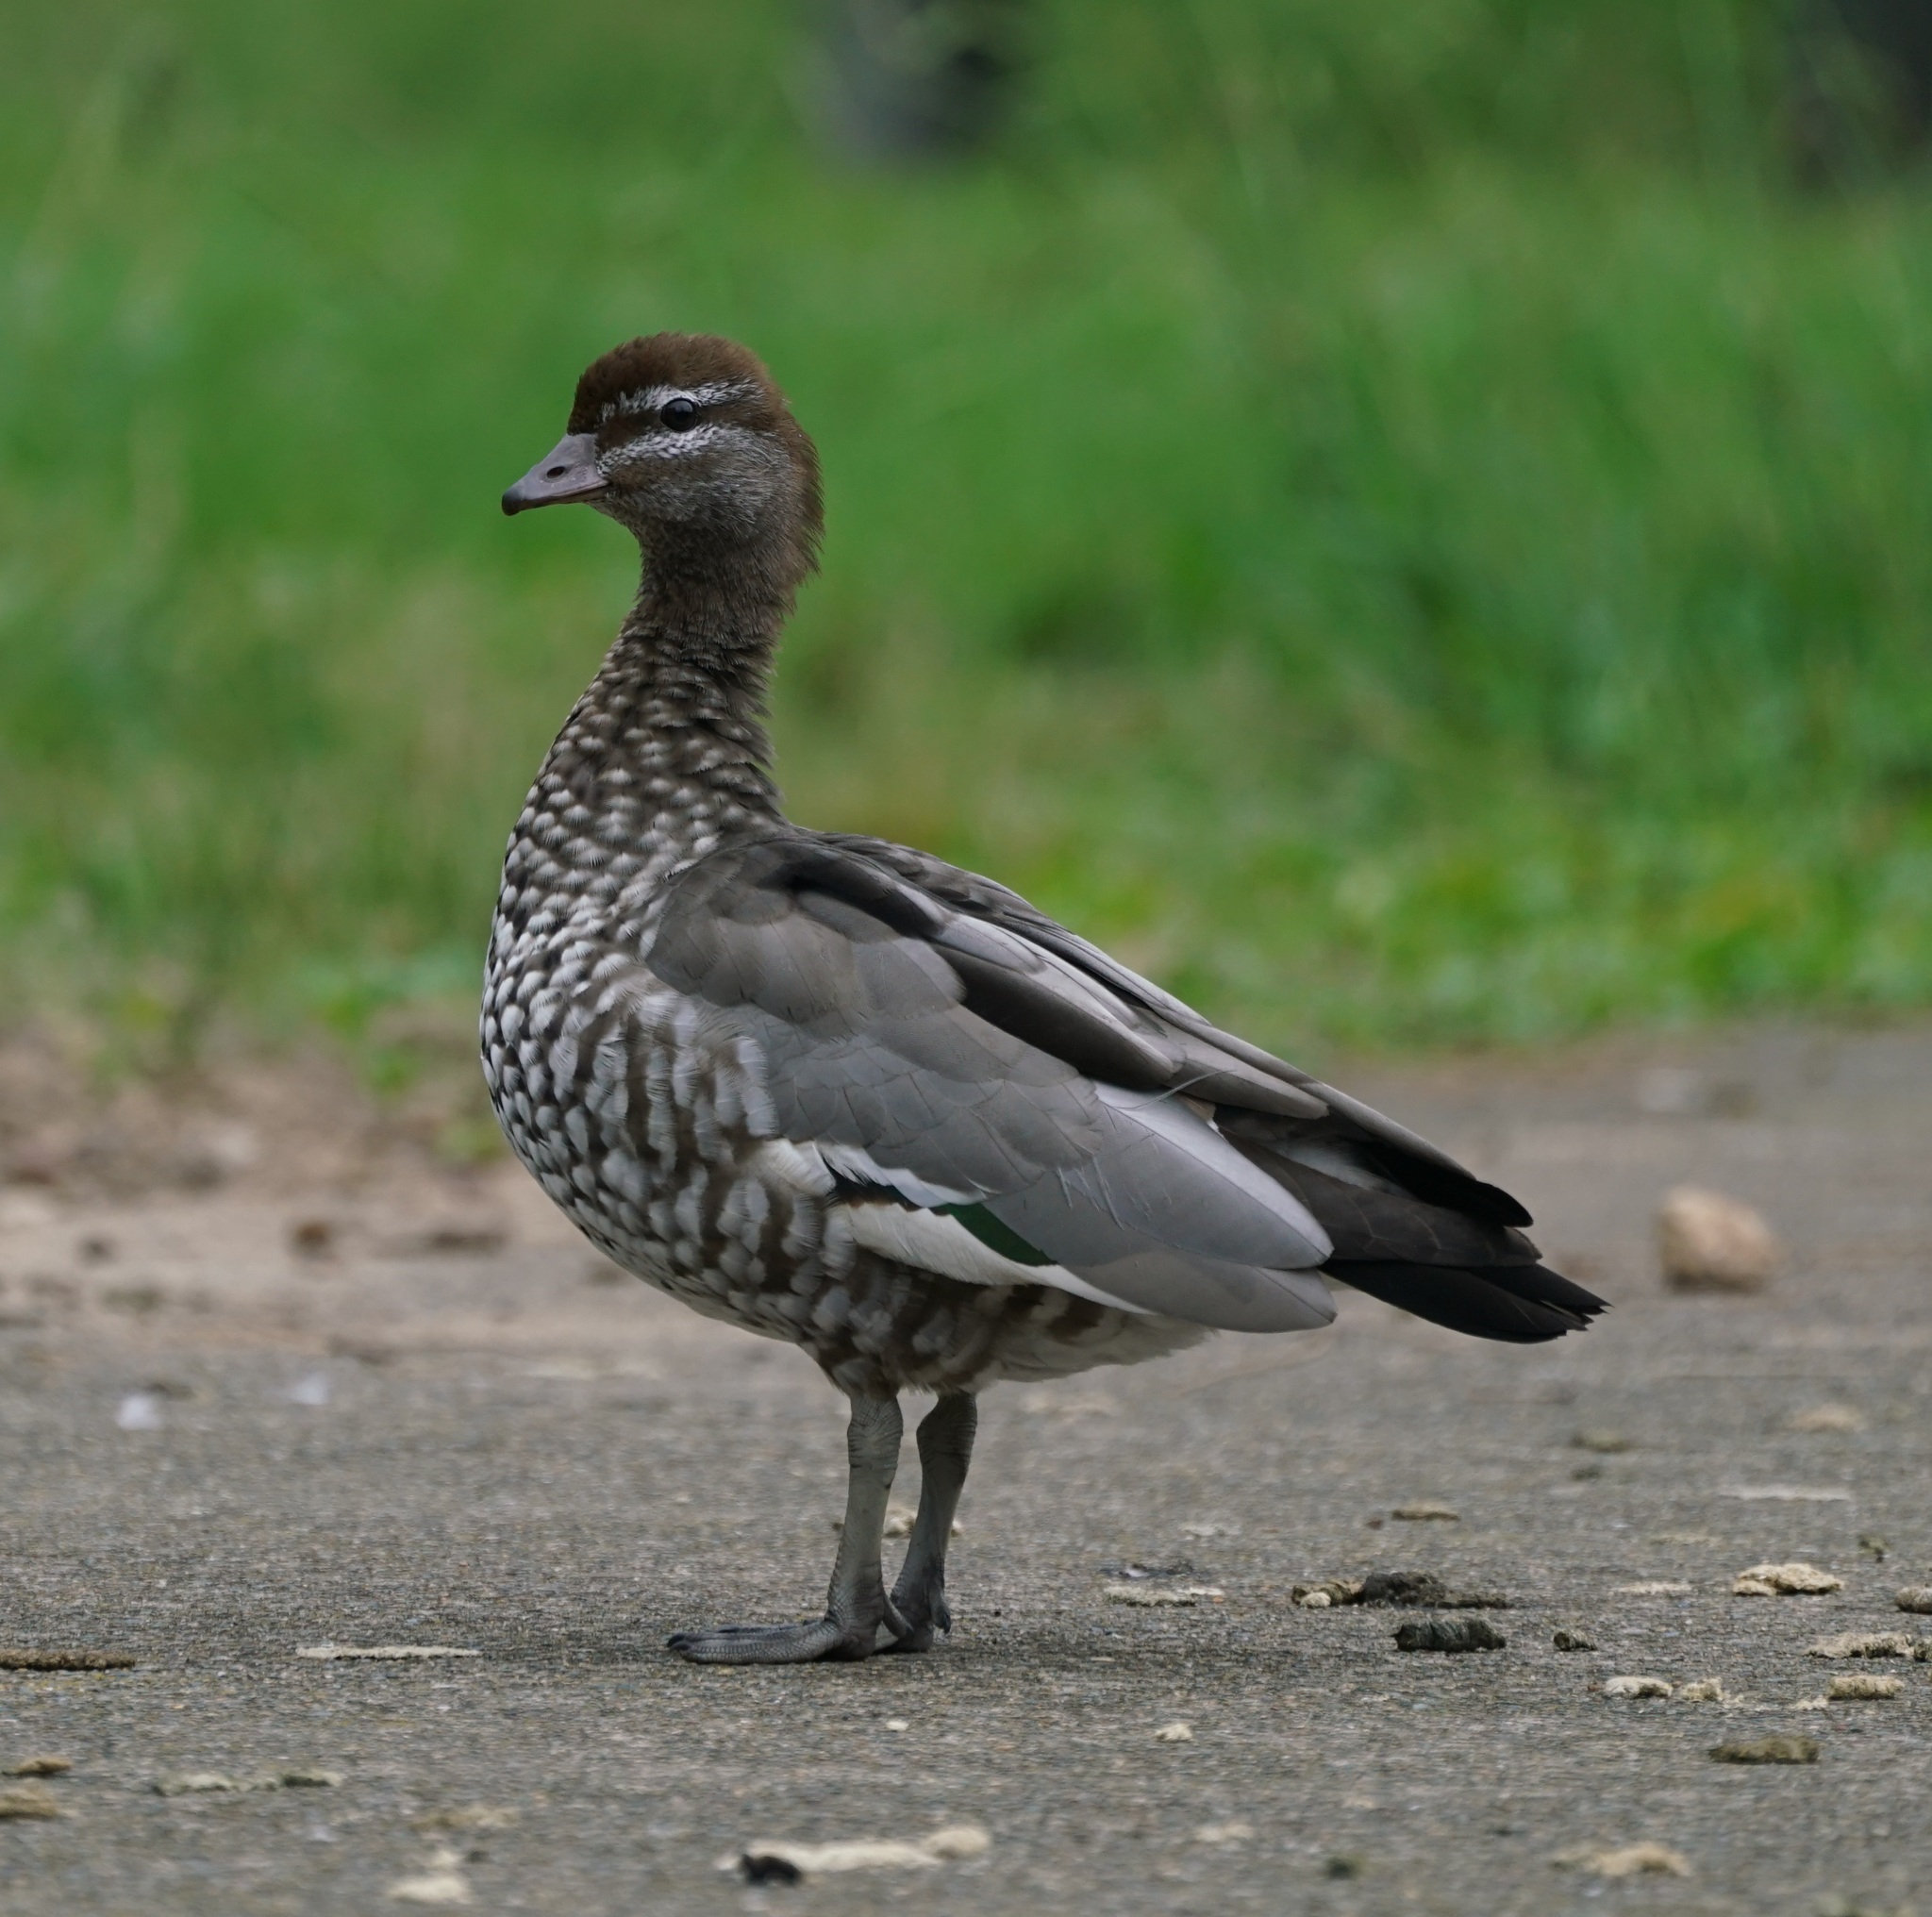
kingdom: Animalia
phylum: Chordata
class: Aves
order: Anseriformes
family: Anatidae
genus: Chenonetta
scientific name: Chenonetta jubata
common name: Maned duck
